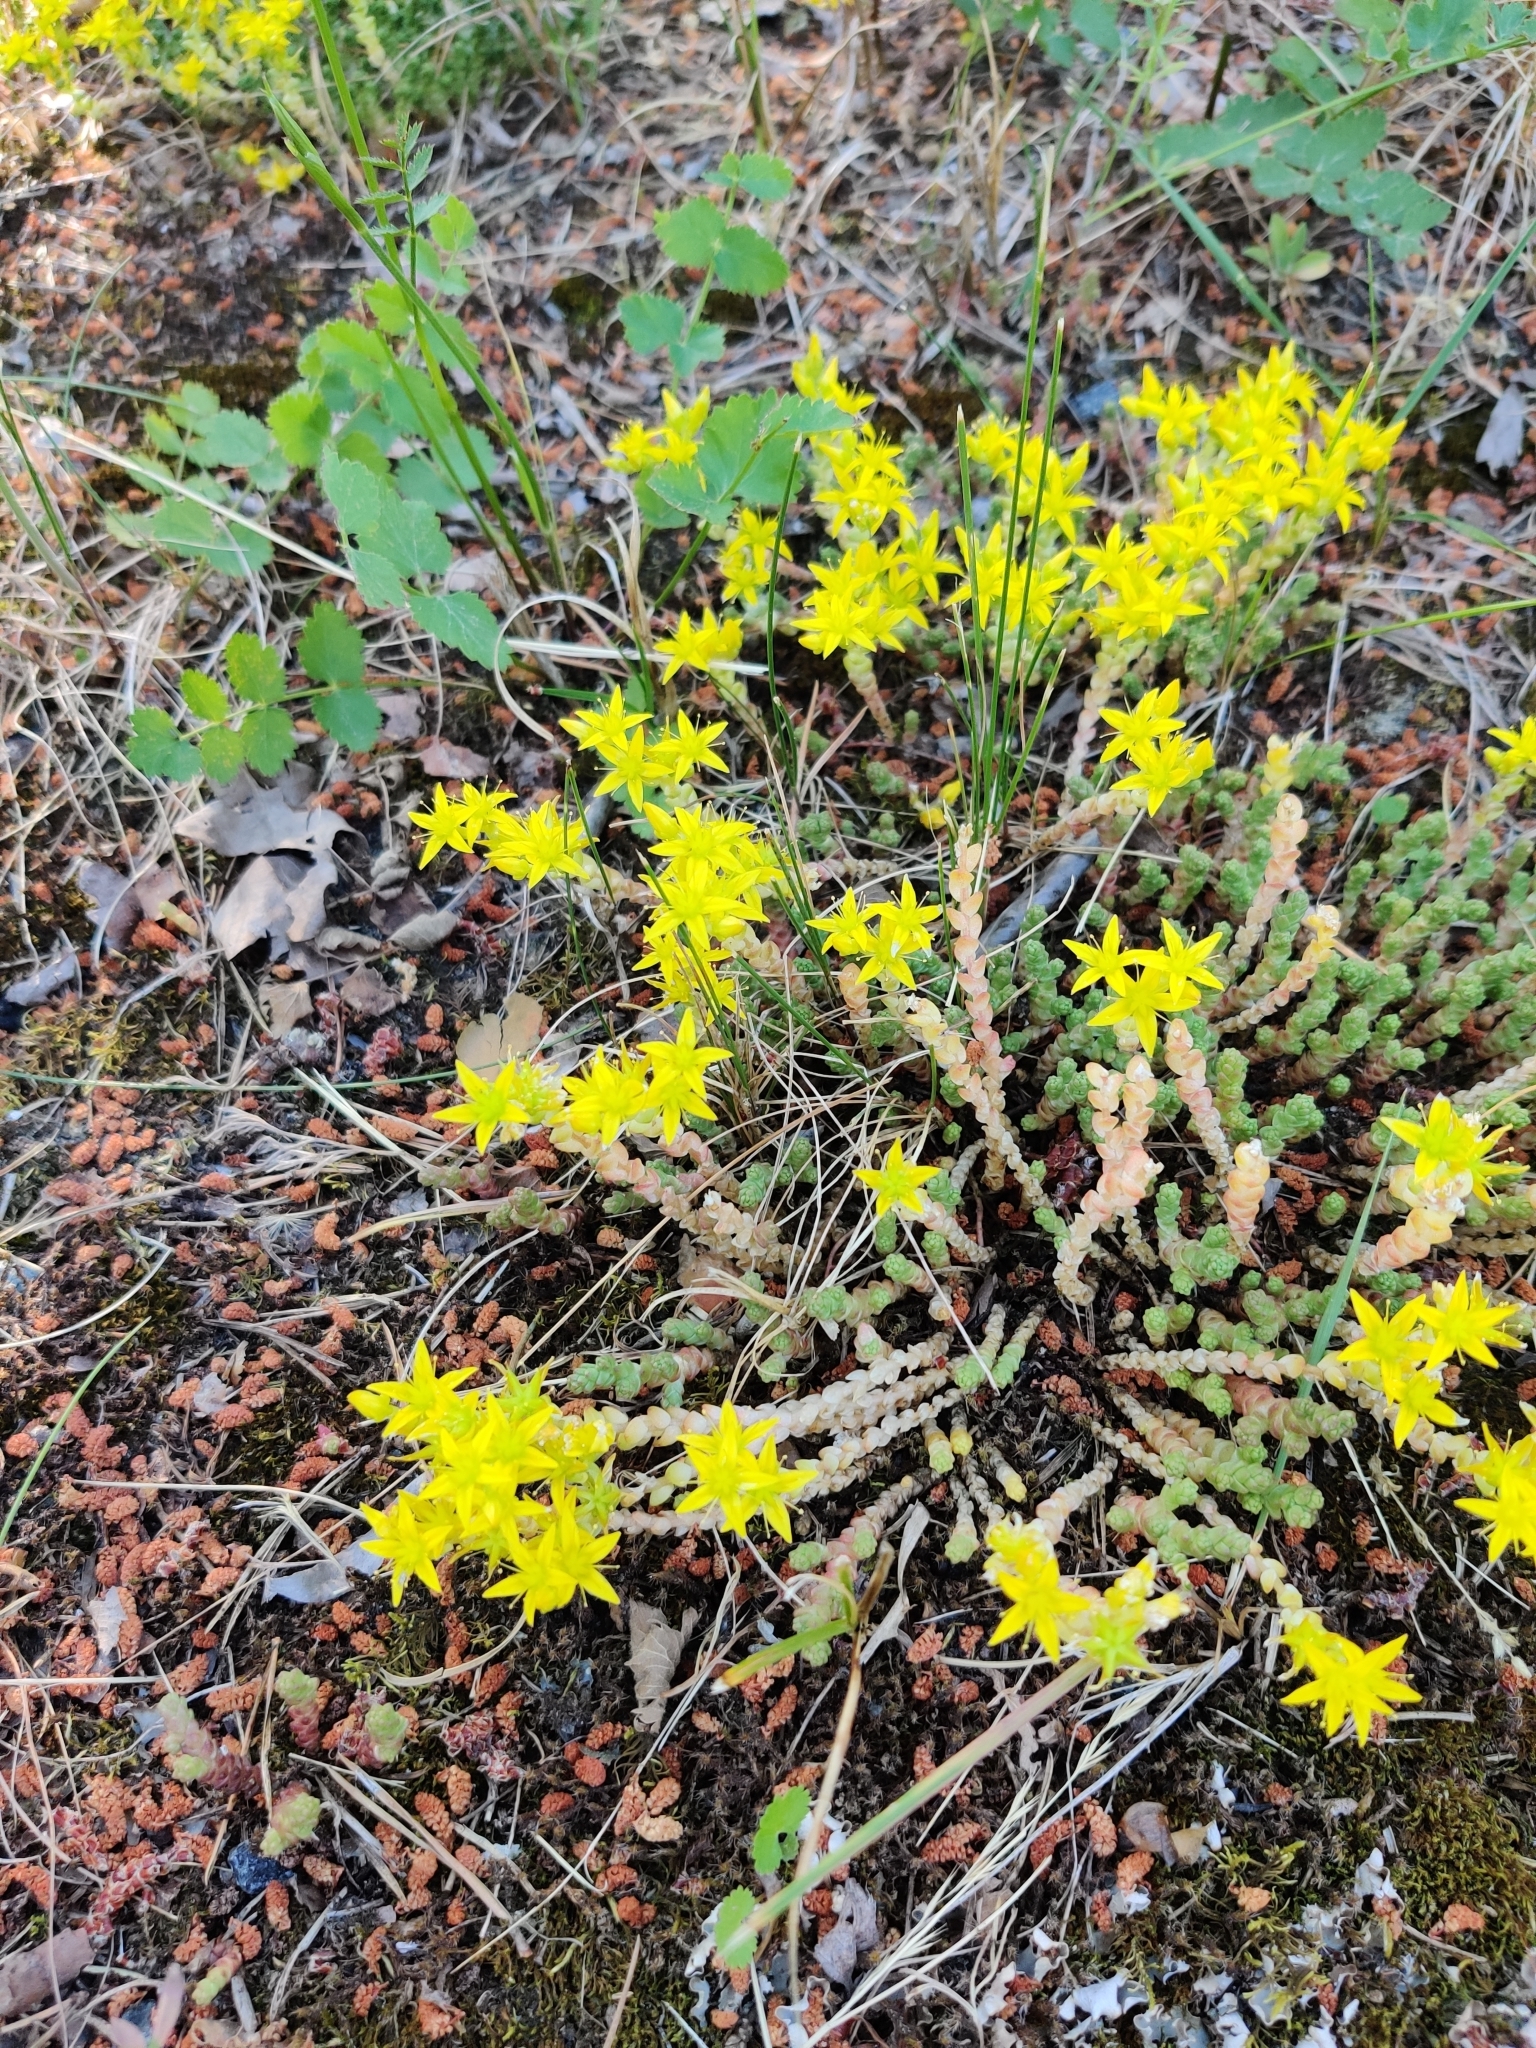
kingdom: Plantae
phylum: Tracheophyta
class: Magnoliopsida
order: Saxifragales
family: Crassulaceae
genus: Sedum
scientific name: Sedum acre
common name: Biting stonecrop
